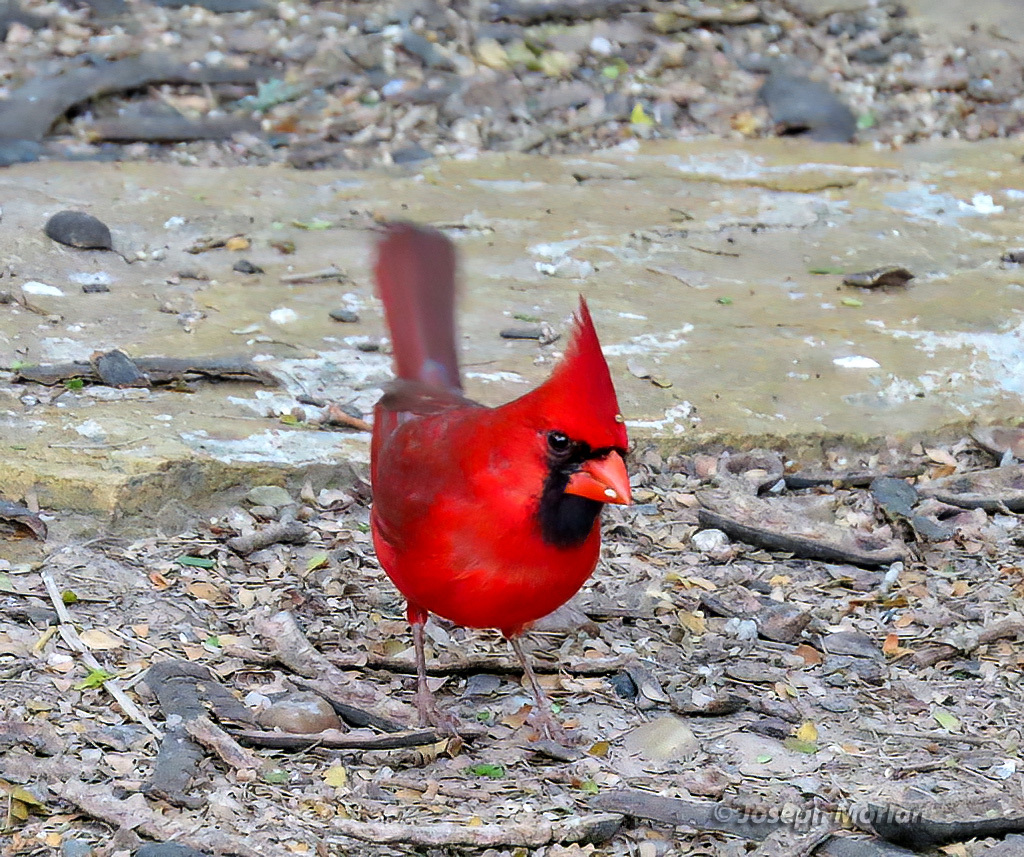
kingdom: Animalia
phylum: Chordata
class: Aves
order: Passeriformes
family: Cardinalidae
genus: Cardinalis
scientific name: Cardinalis cardinalis
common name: Northern cardinal
